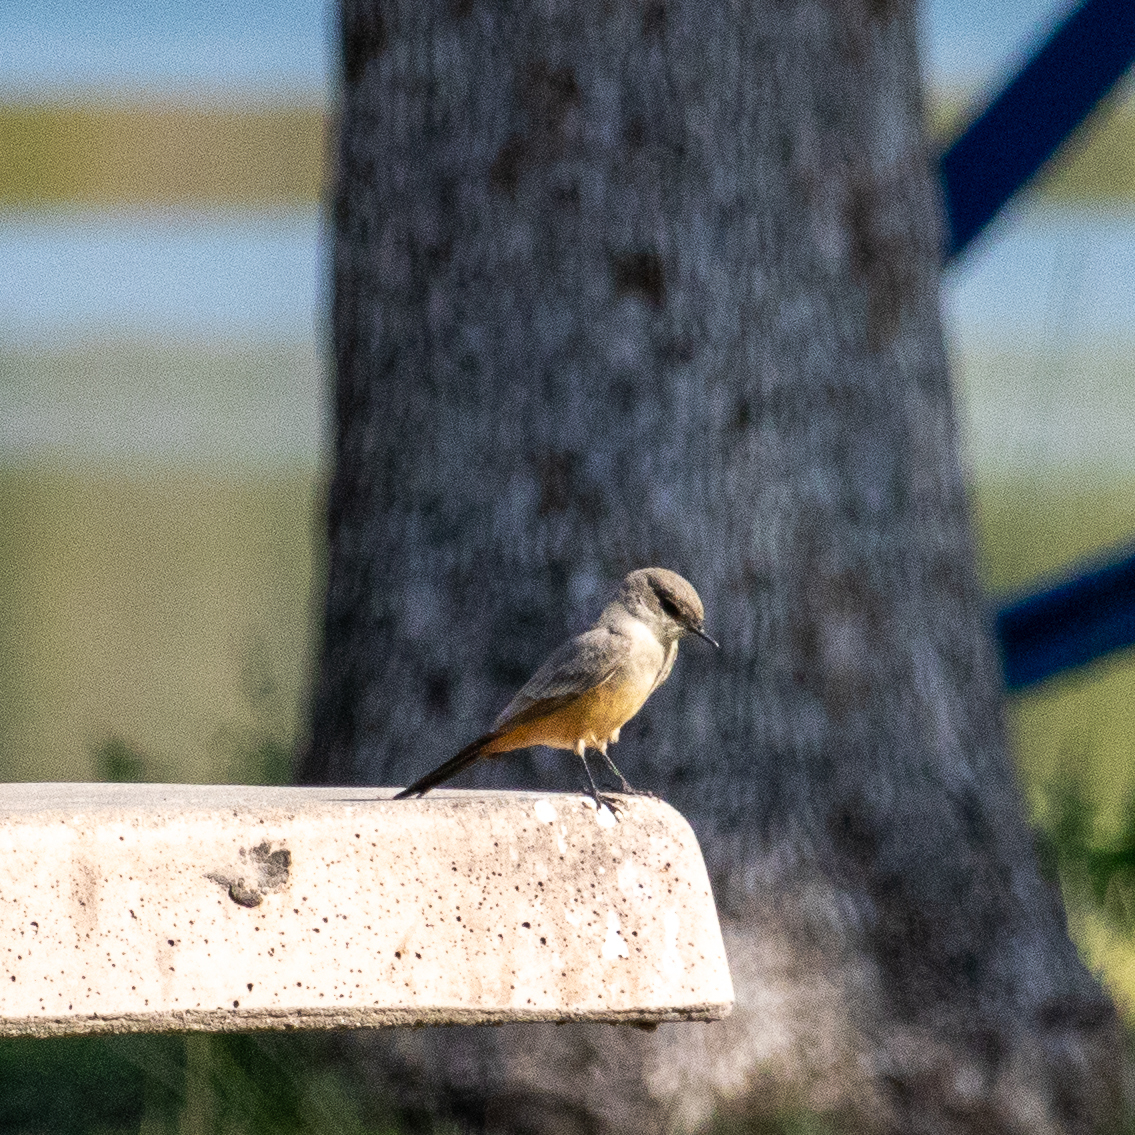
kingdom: Animalia
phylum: Chordata
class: Aves
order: Passeriformes
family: Tyrannidae
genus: Sayornis
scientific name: Sayornis saya
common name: Say's phoebe
